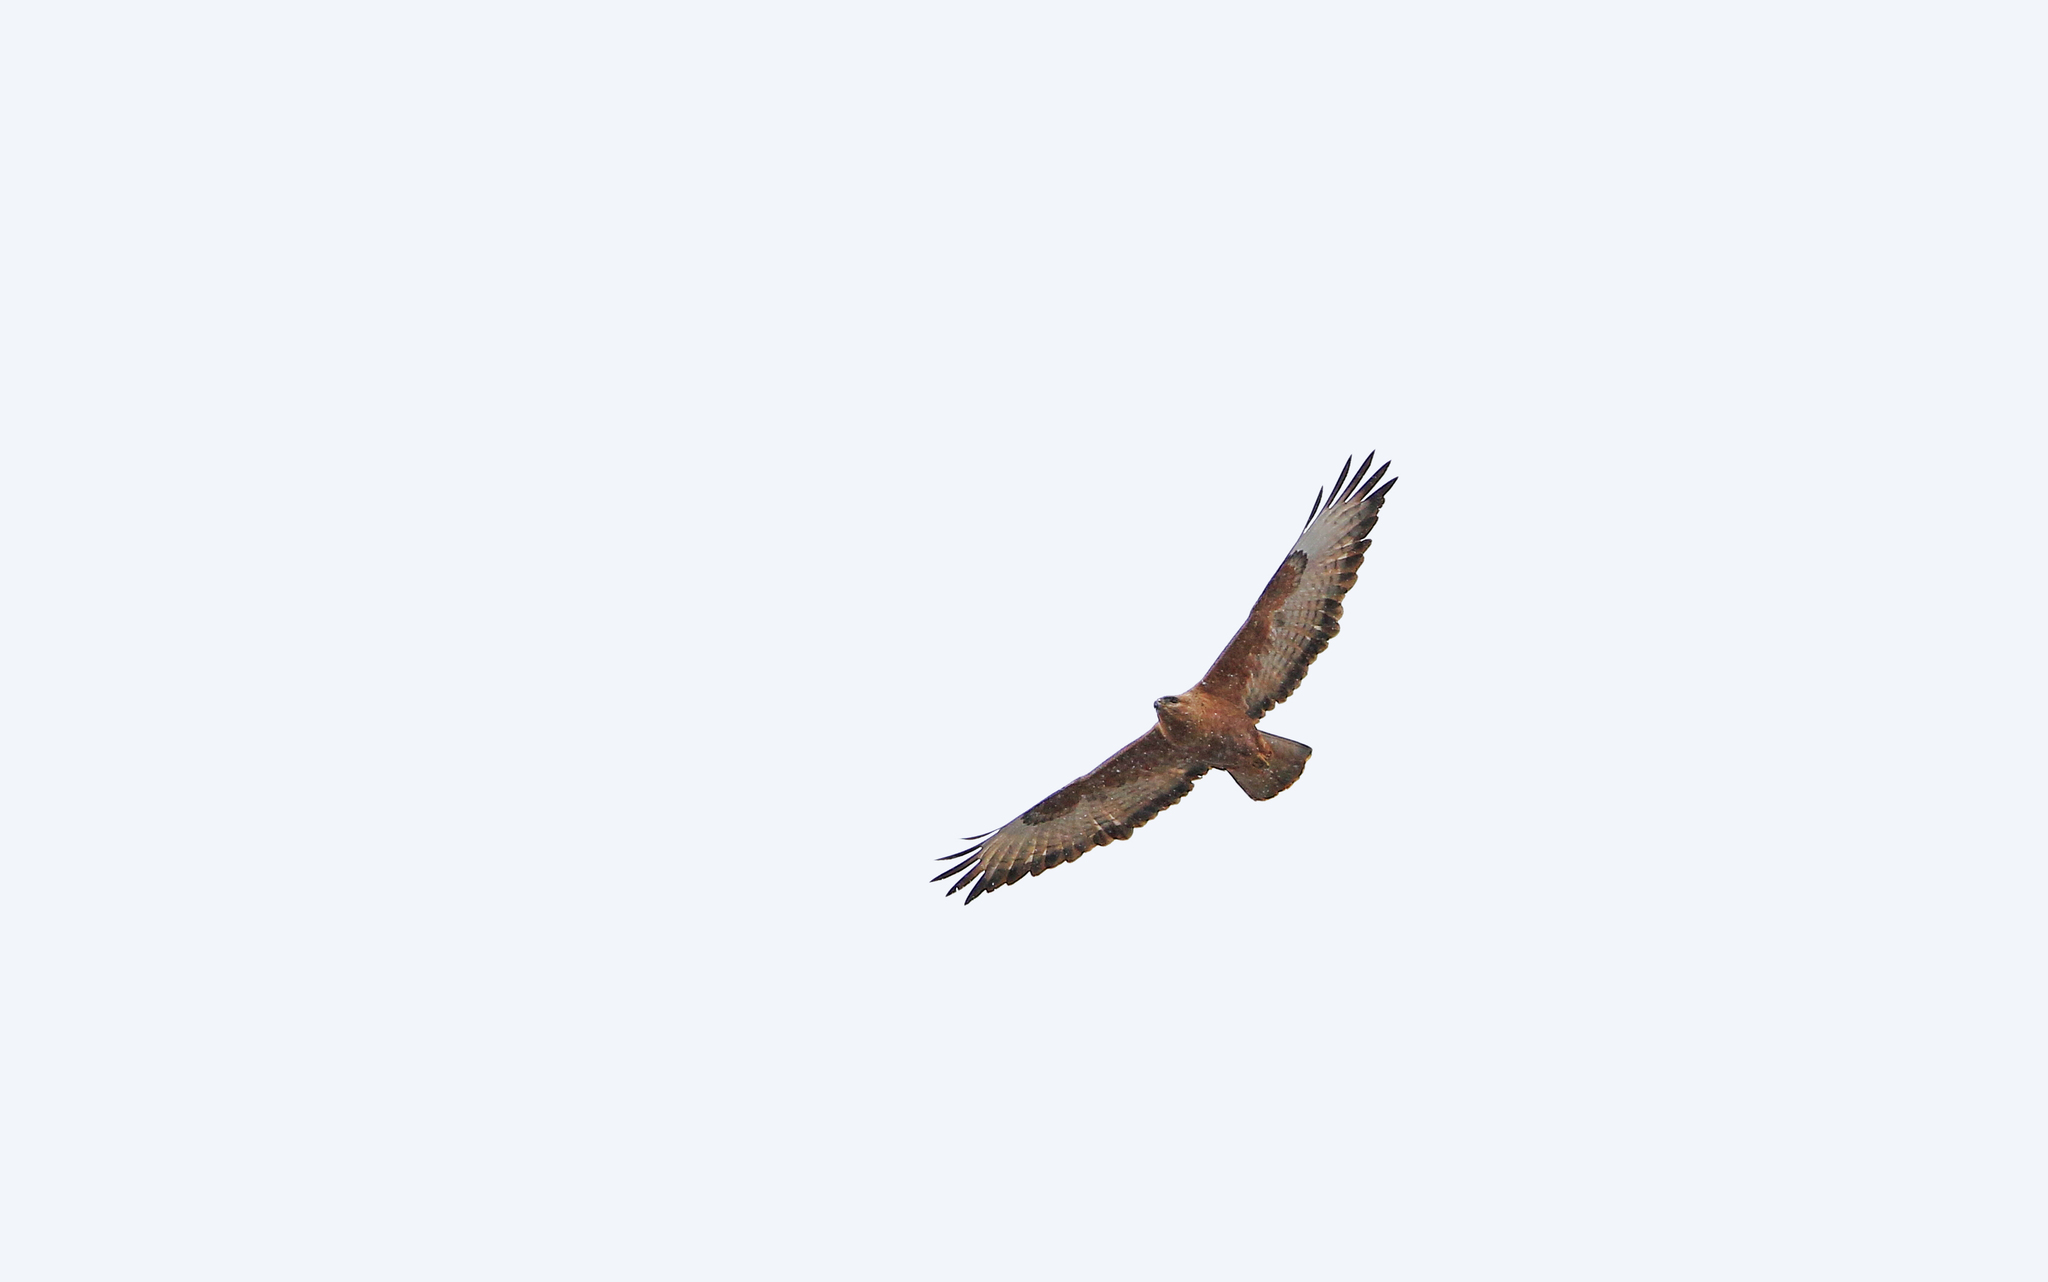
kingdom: Animalia
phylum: Chordata
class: Aves
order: Accipitriformes
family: Accipitridae
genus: Buteo
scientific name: Buteo buteo
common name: Common buzzard
